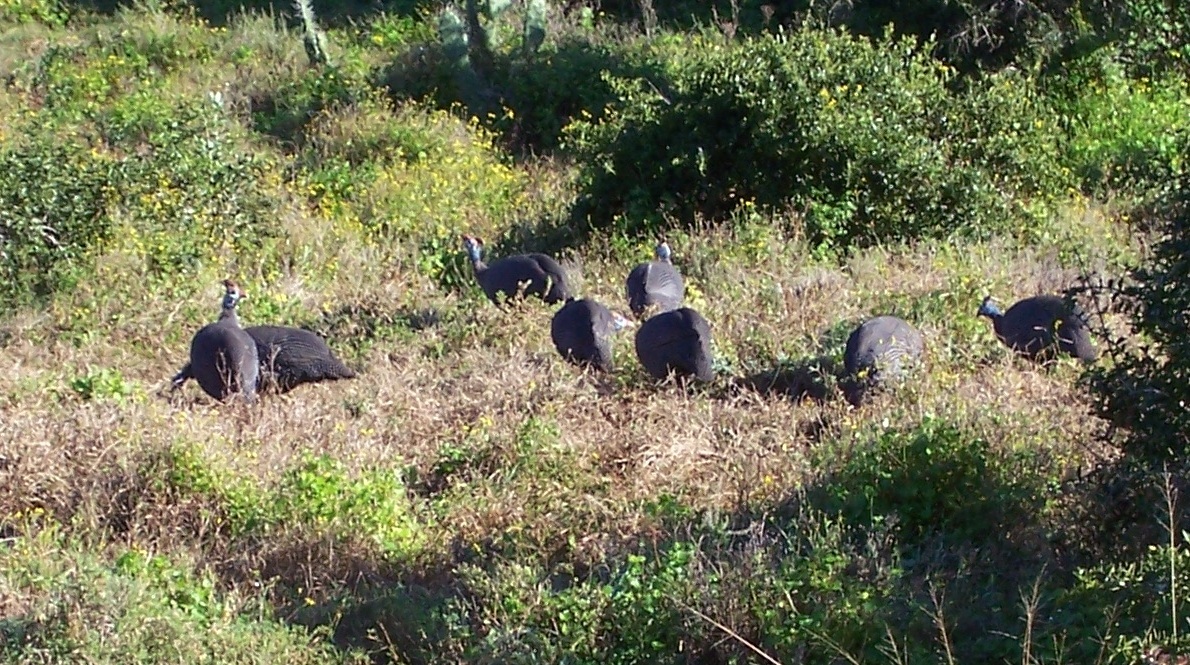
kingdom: Animalia
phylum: Chordata
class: Aves
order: Galliformes
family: Numididae
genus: Numida
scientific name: Numida meleagris
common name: Helmeted guineafowl
